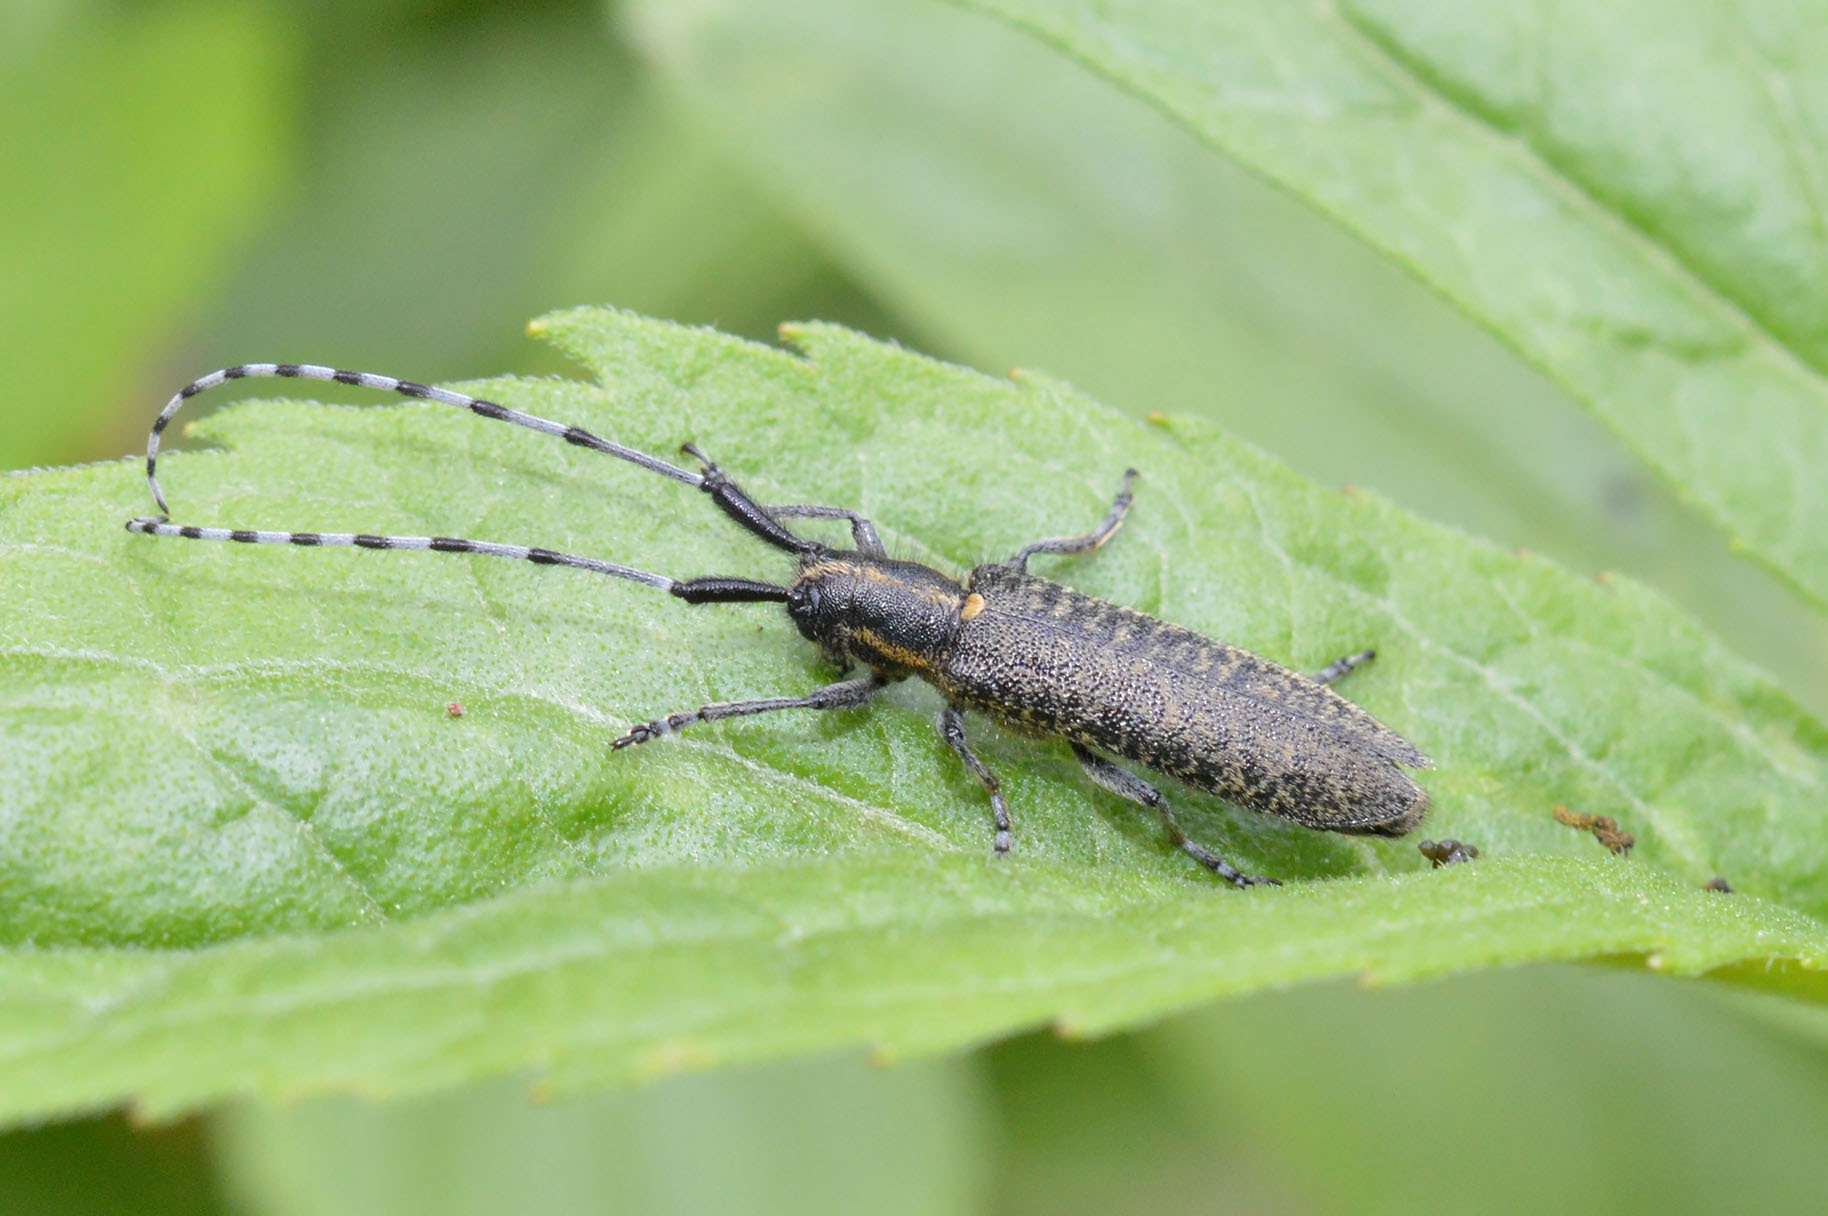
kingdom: Animalia
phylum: Arthropoda
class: Insecta
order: Coleoptera
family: Cerambycidae
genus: Agapanthia
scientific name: Agapanthia villosoviridescens
